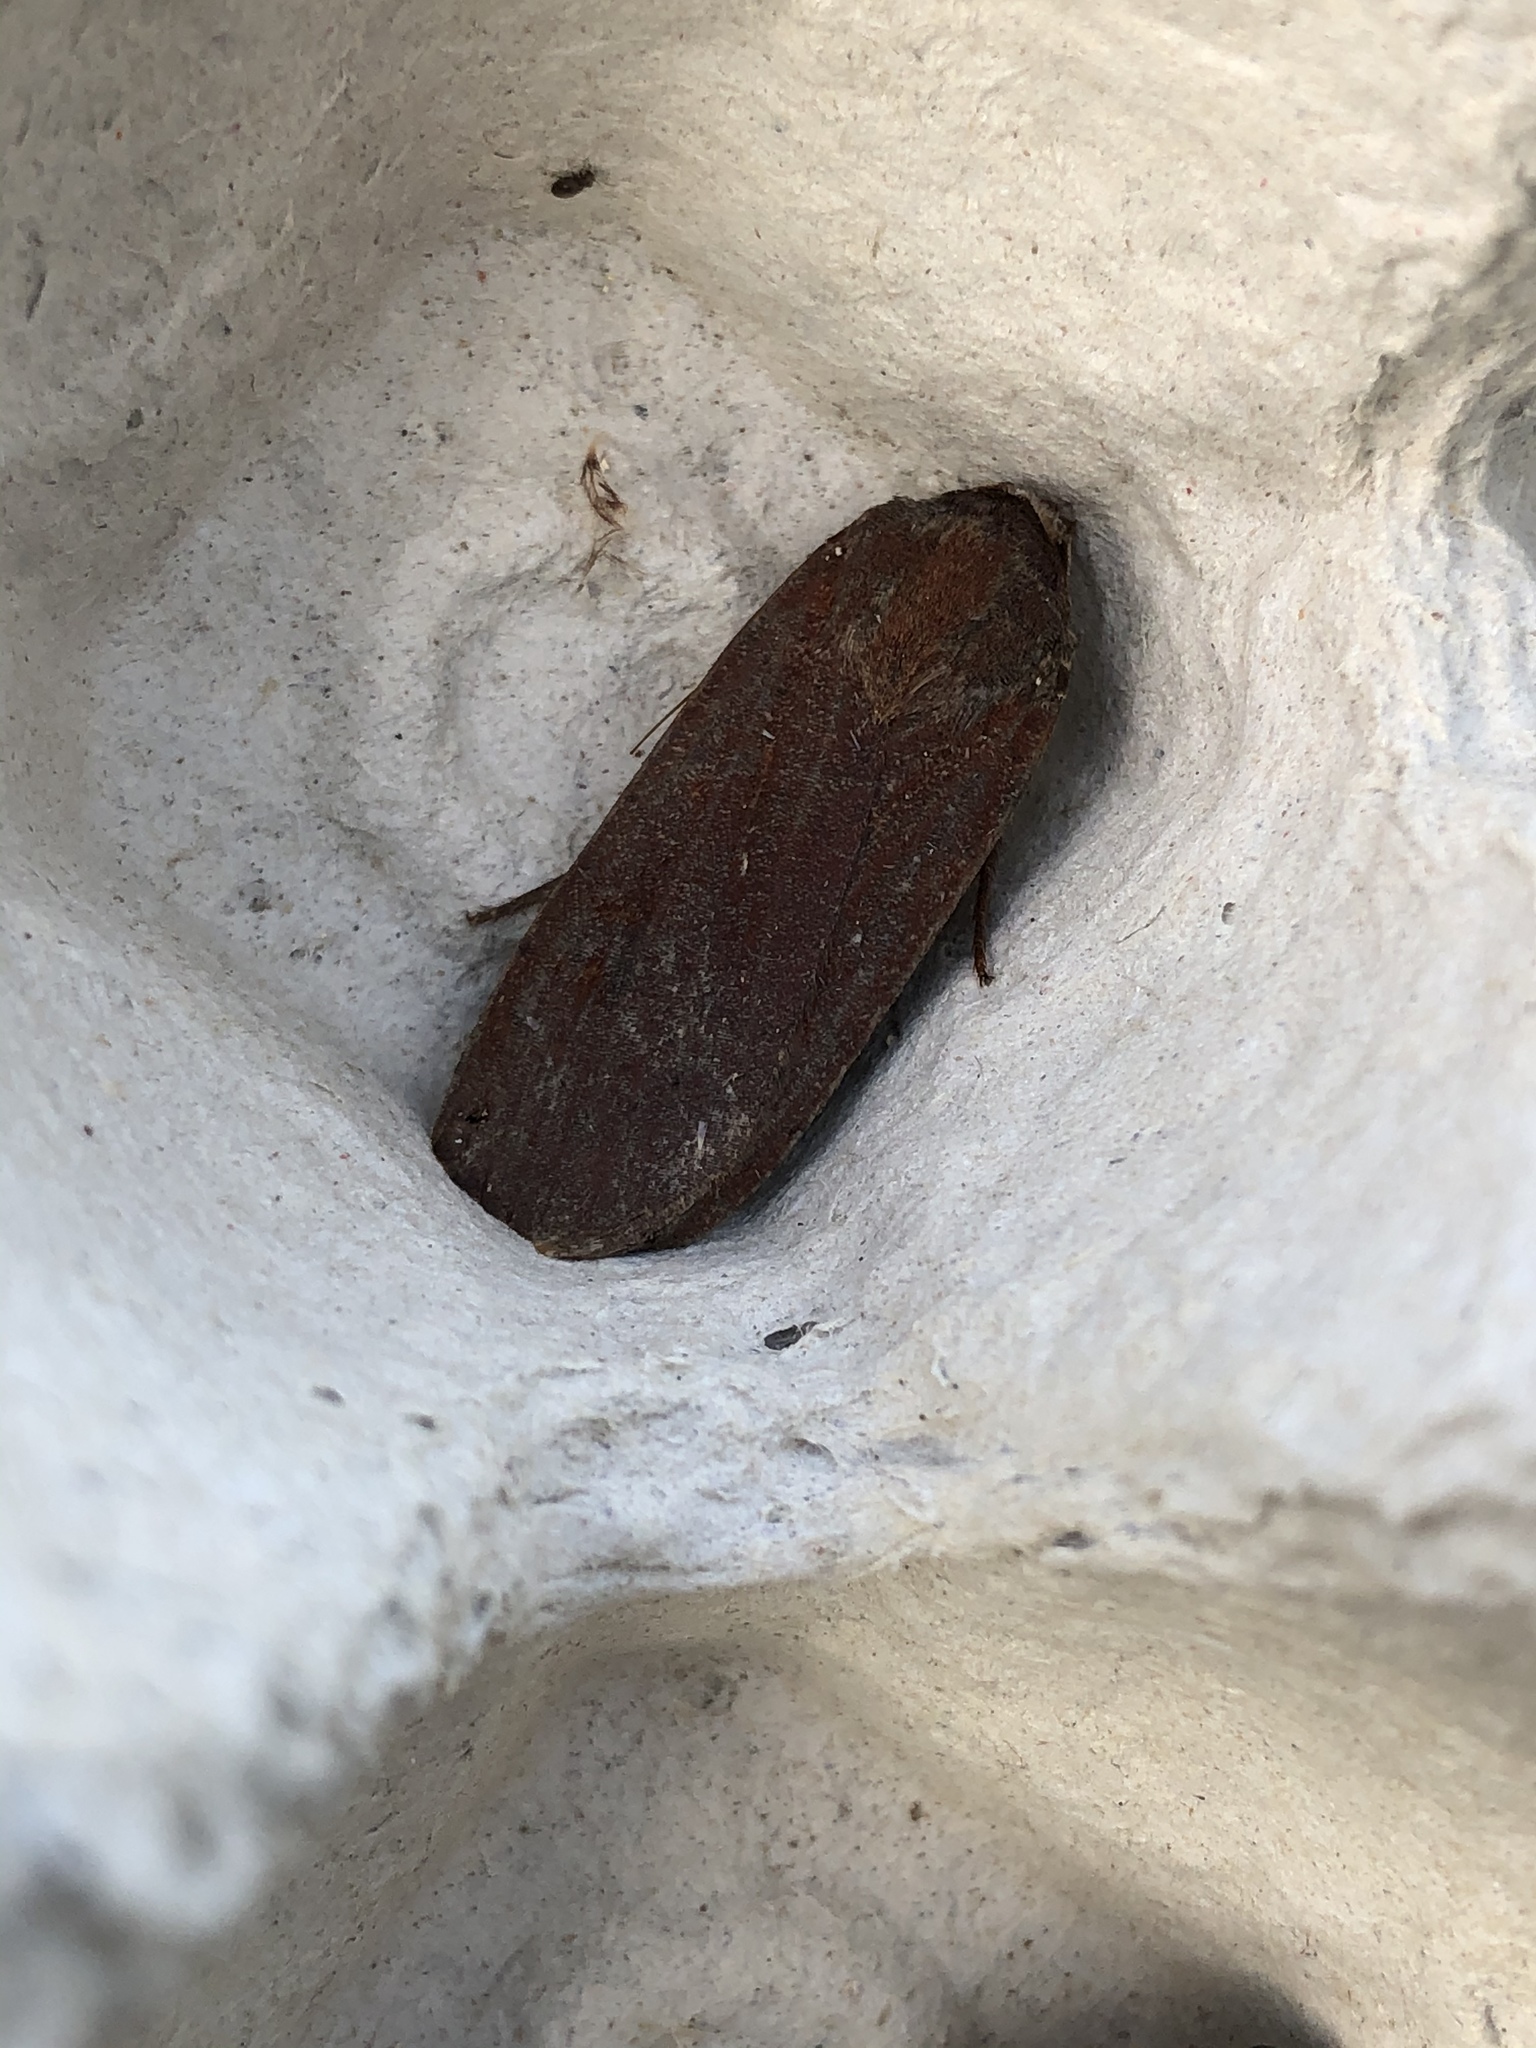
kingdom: Animalia
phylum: Arthropoda
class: Insecta
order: Lepidoptera
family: Noctuidae
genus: Noctua
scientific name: Noctua pronuba
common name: Large yellow underwing
